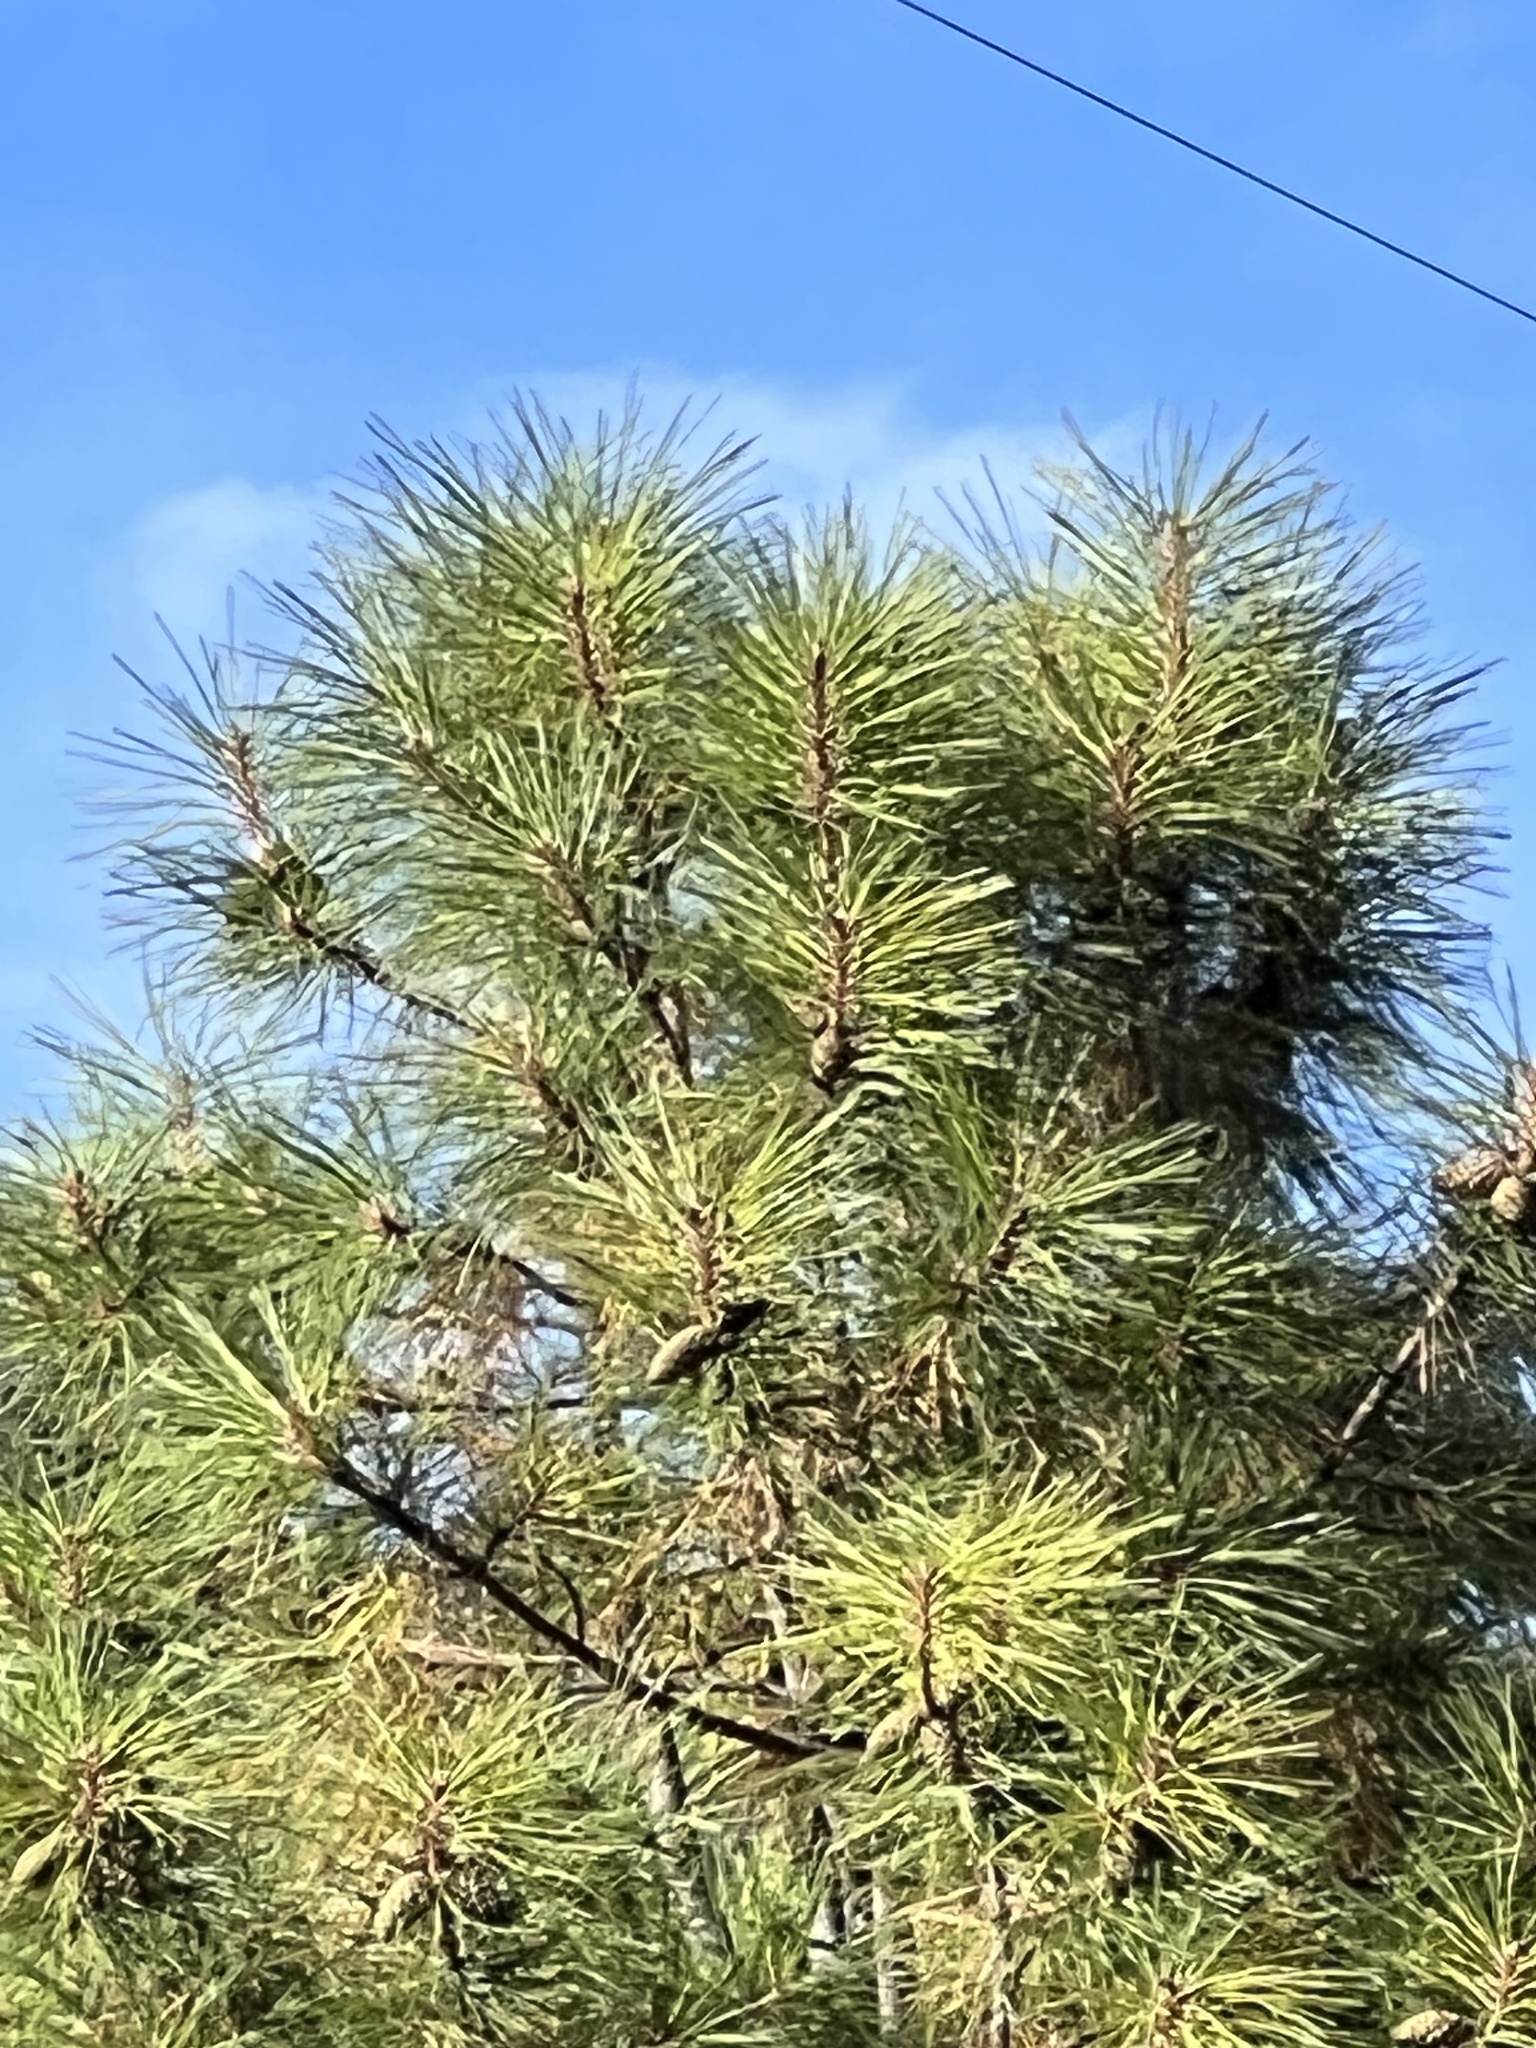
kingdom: Plantae
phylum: Tracheophyta
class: Pinopsida
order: Pinales
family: Pinaceae
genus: Pinus
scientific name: Pinus ponderosa
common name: Western yellow-pine
